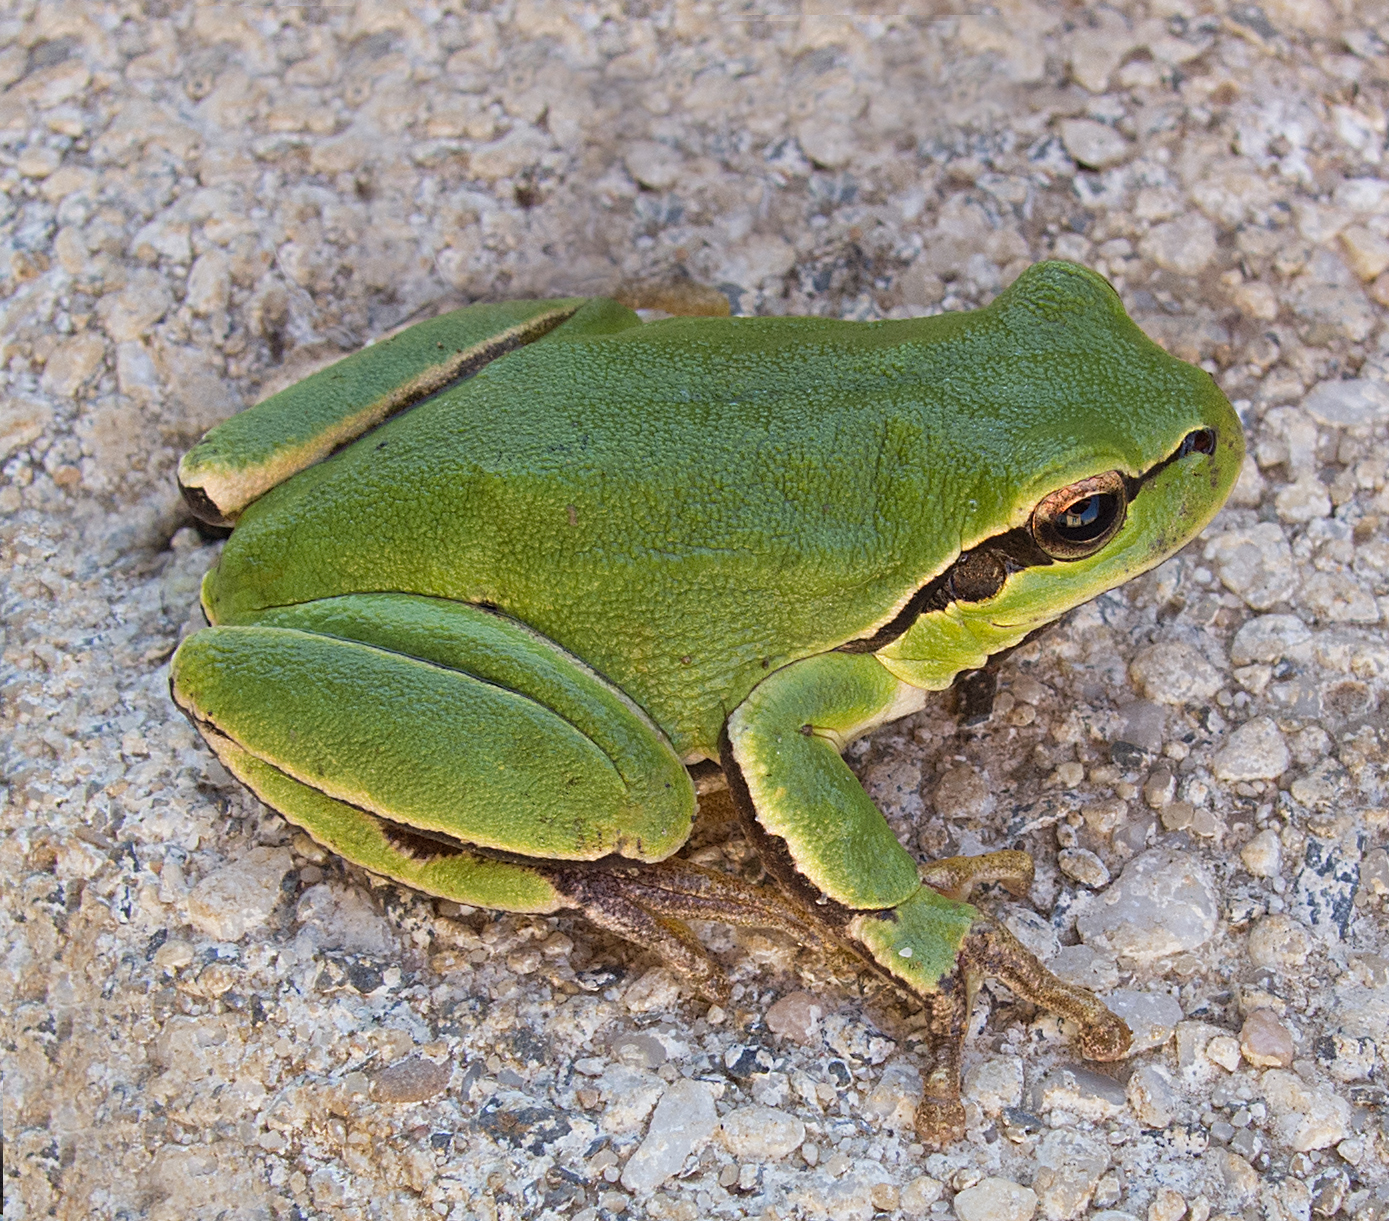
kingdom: Animalia
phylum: Chordata
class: Amphibia
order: Anura
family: Hylidae
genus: Hyla
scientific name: Hyla orientalis
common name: Caucasian treefrog
